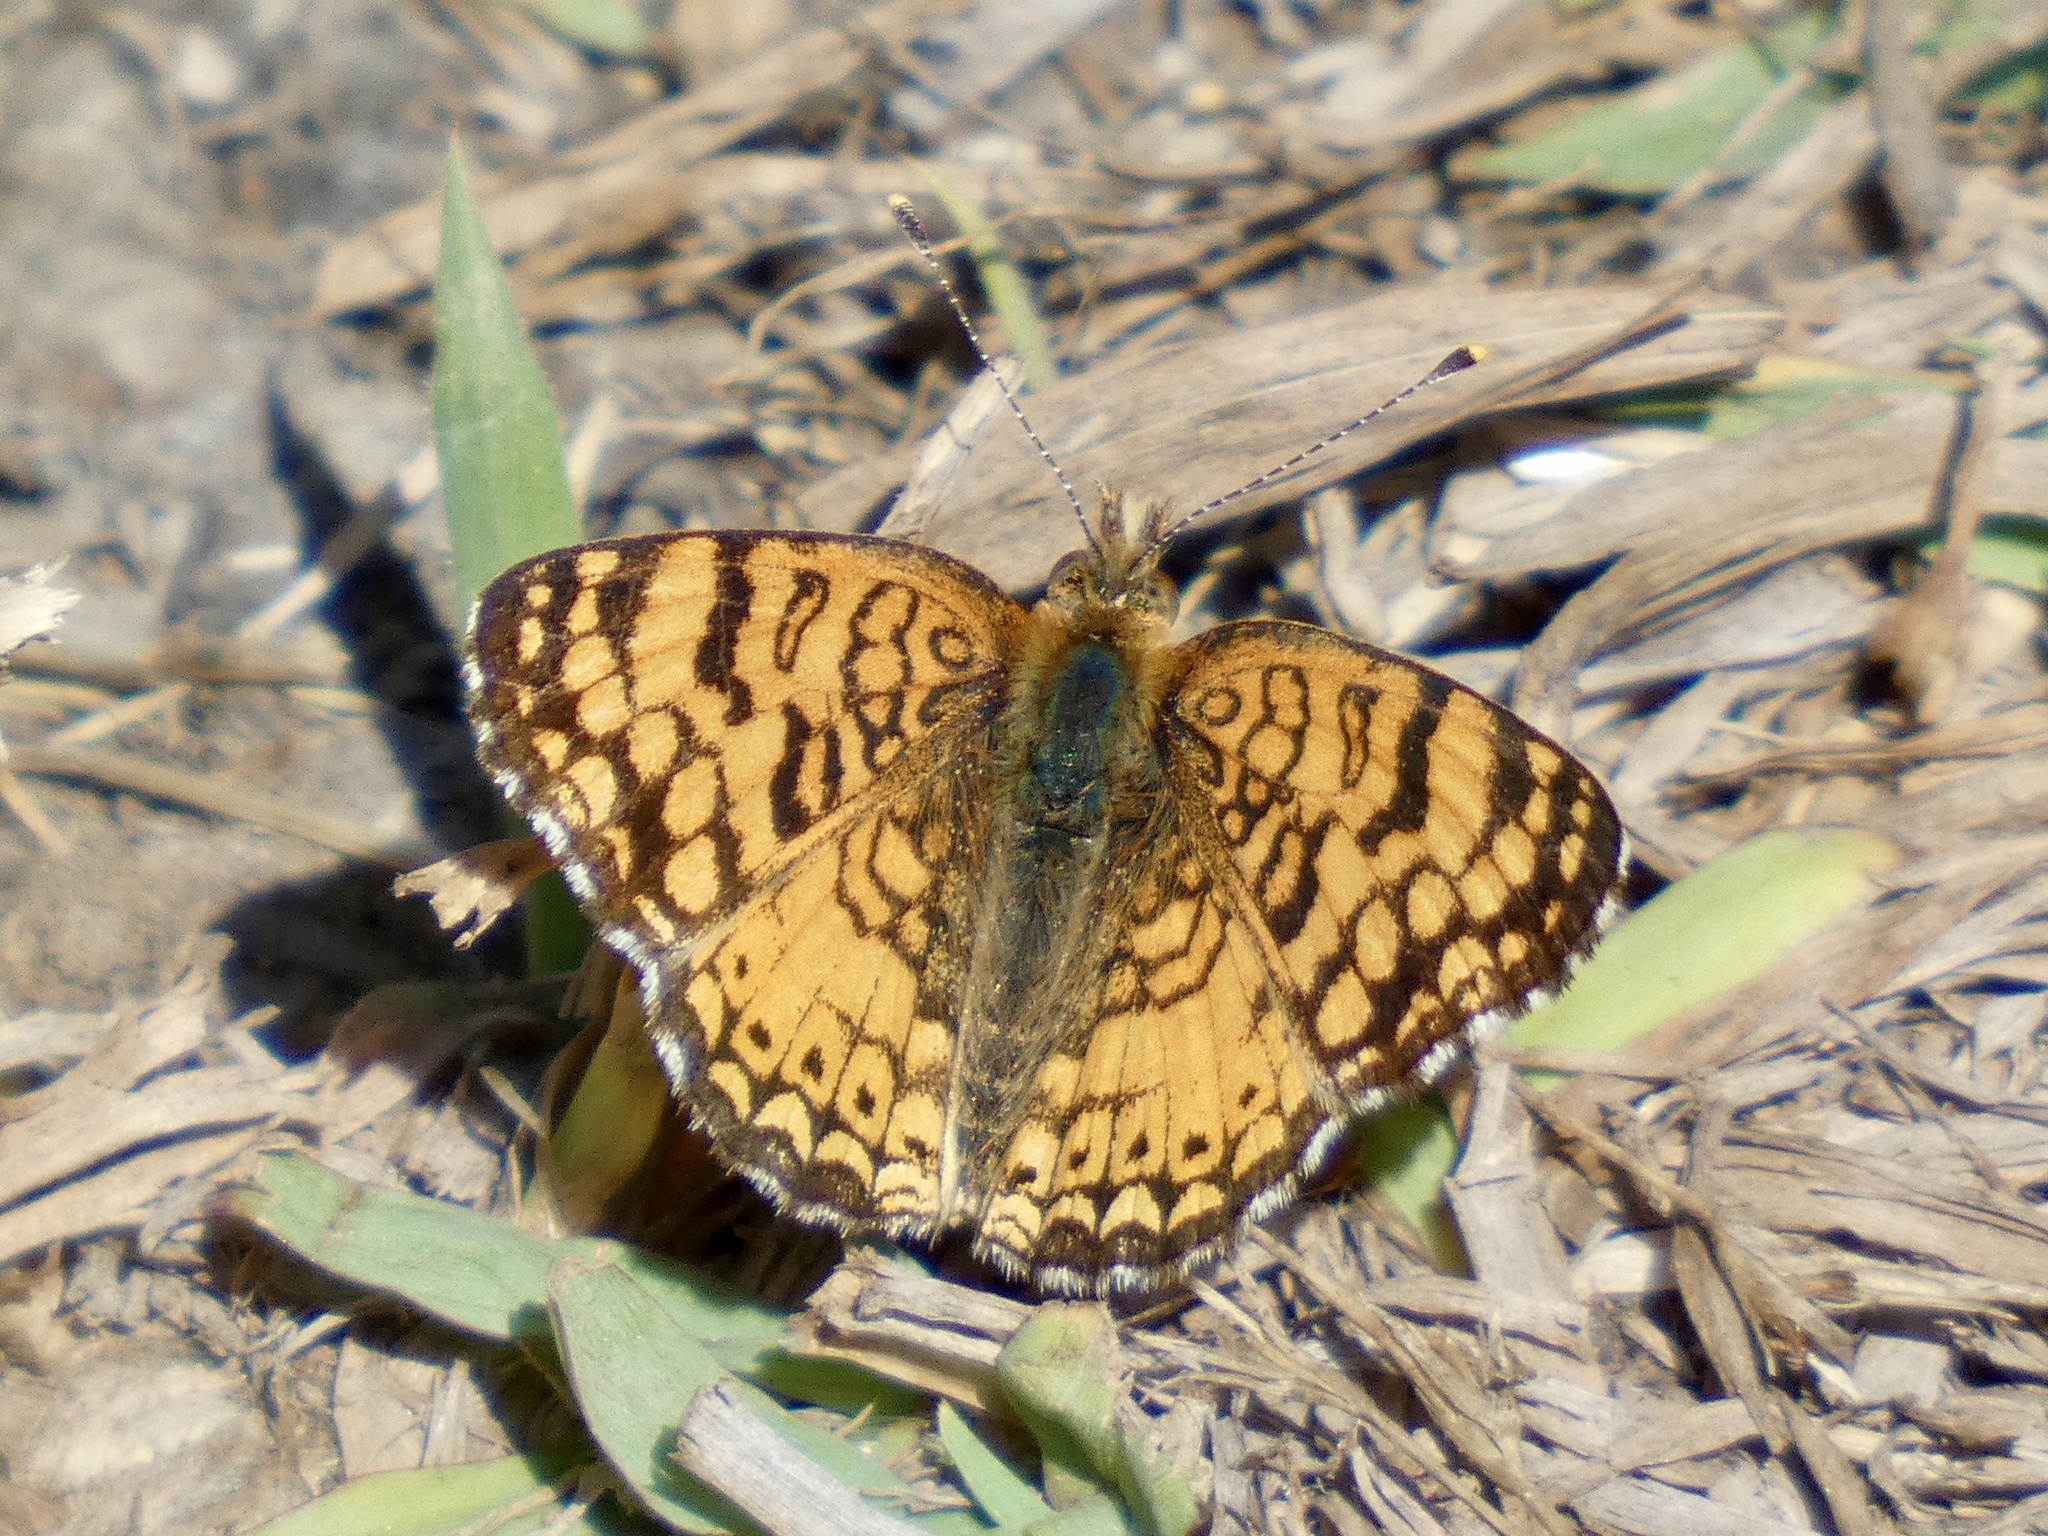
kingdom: Animalia
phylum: Arthropoda
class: Insecta
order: Lepidoptera
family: Nymphalidae
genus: Eresia
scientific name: Eresia aveyrona
